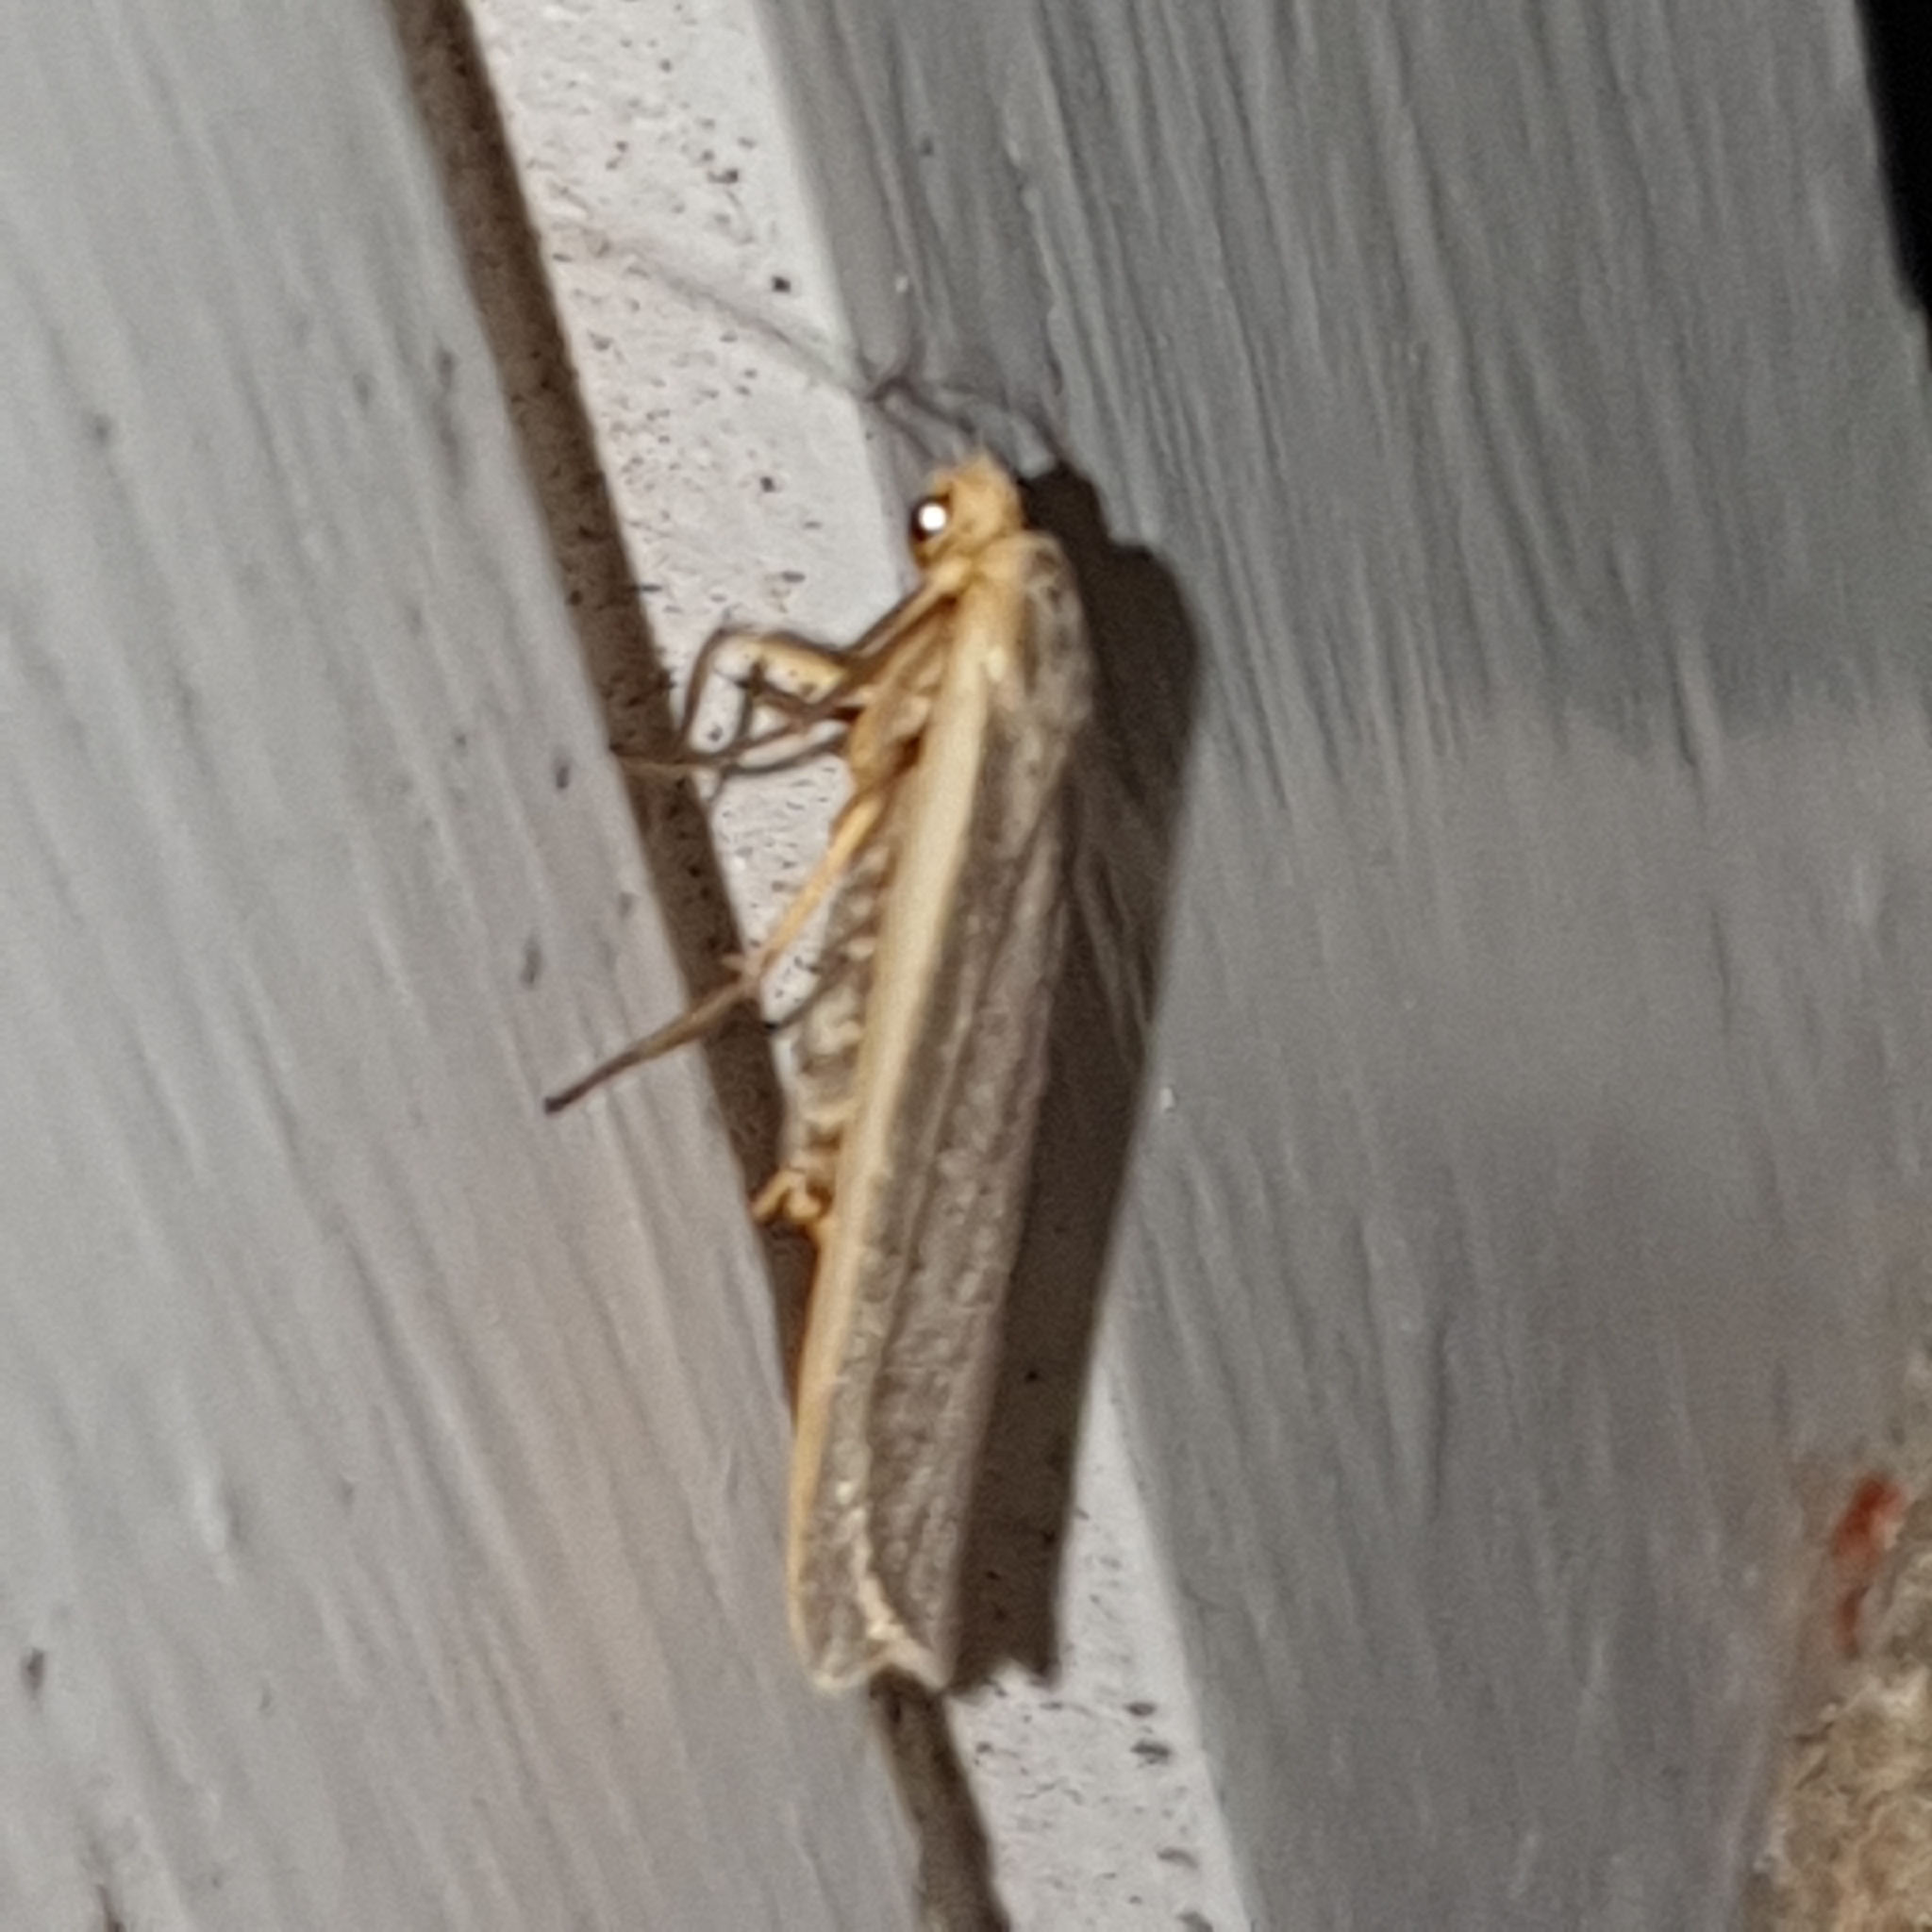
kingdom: Animalia
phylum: Arthropoda
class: Insecta
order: Lepidoptera
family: Erebidae
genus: Nyea
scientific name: Nyea lurideola
